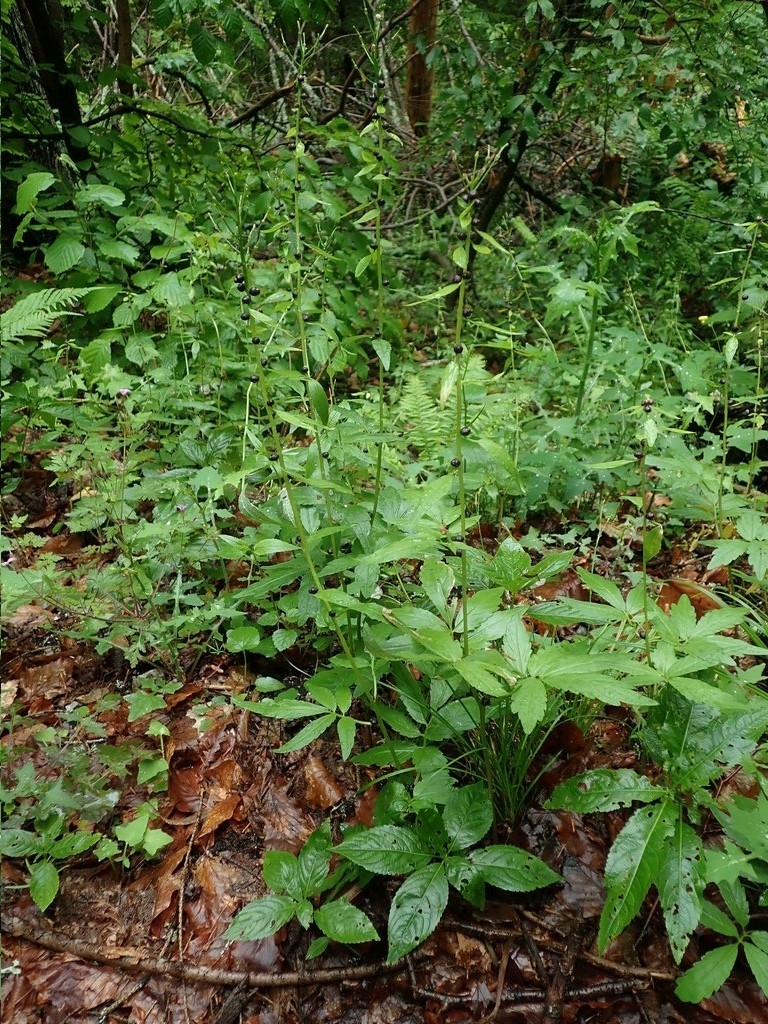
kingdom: Plantae
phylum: Tracheophyta
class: Magnoliopsida
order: Brassicales
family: Brassicaceae
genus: Cardamine
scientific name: Cardamine bulbifera
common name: Coralroot bittercress
